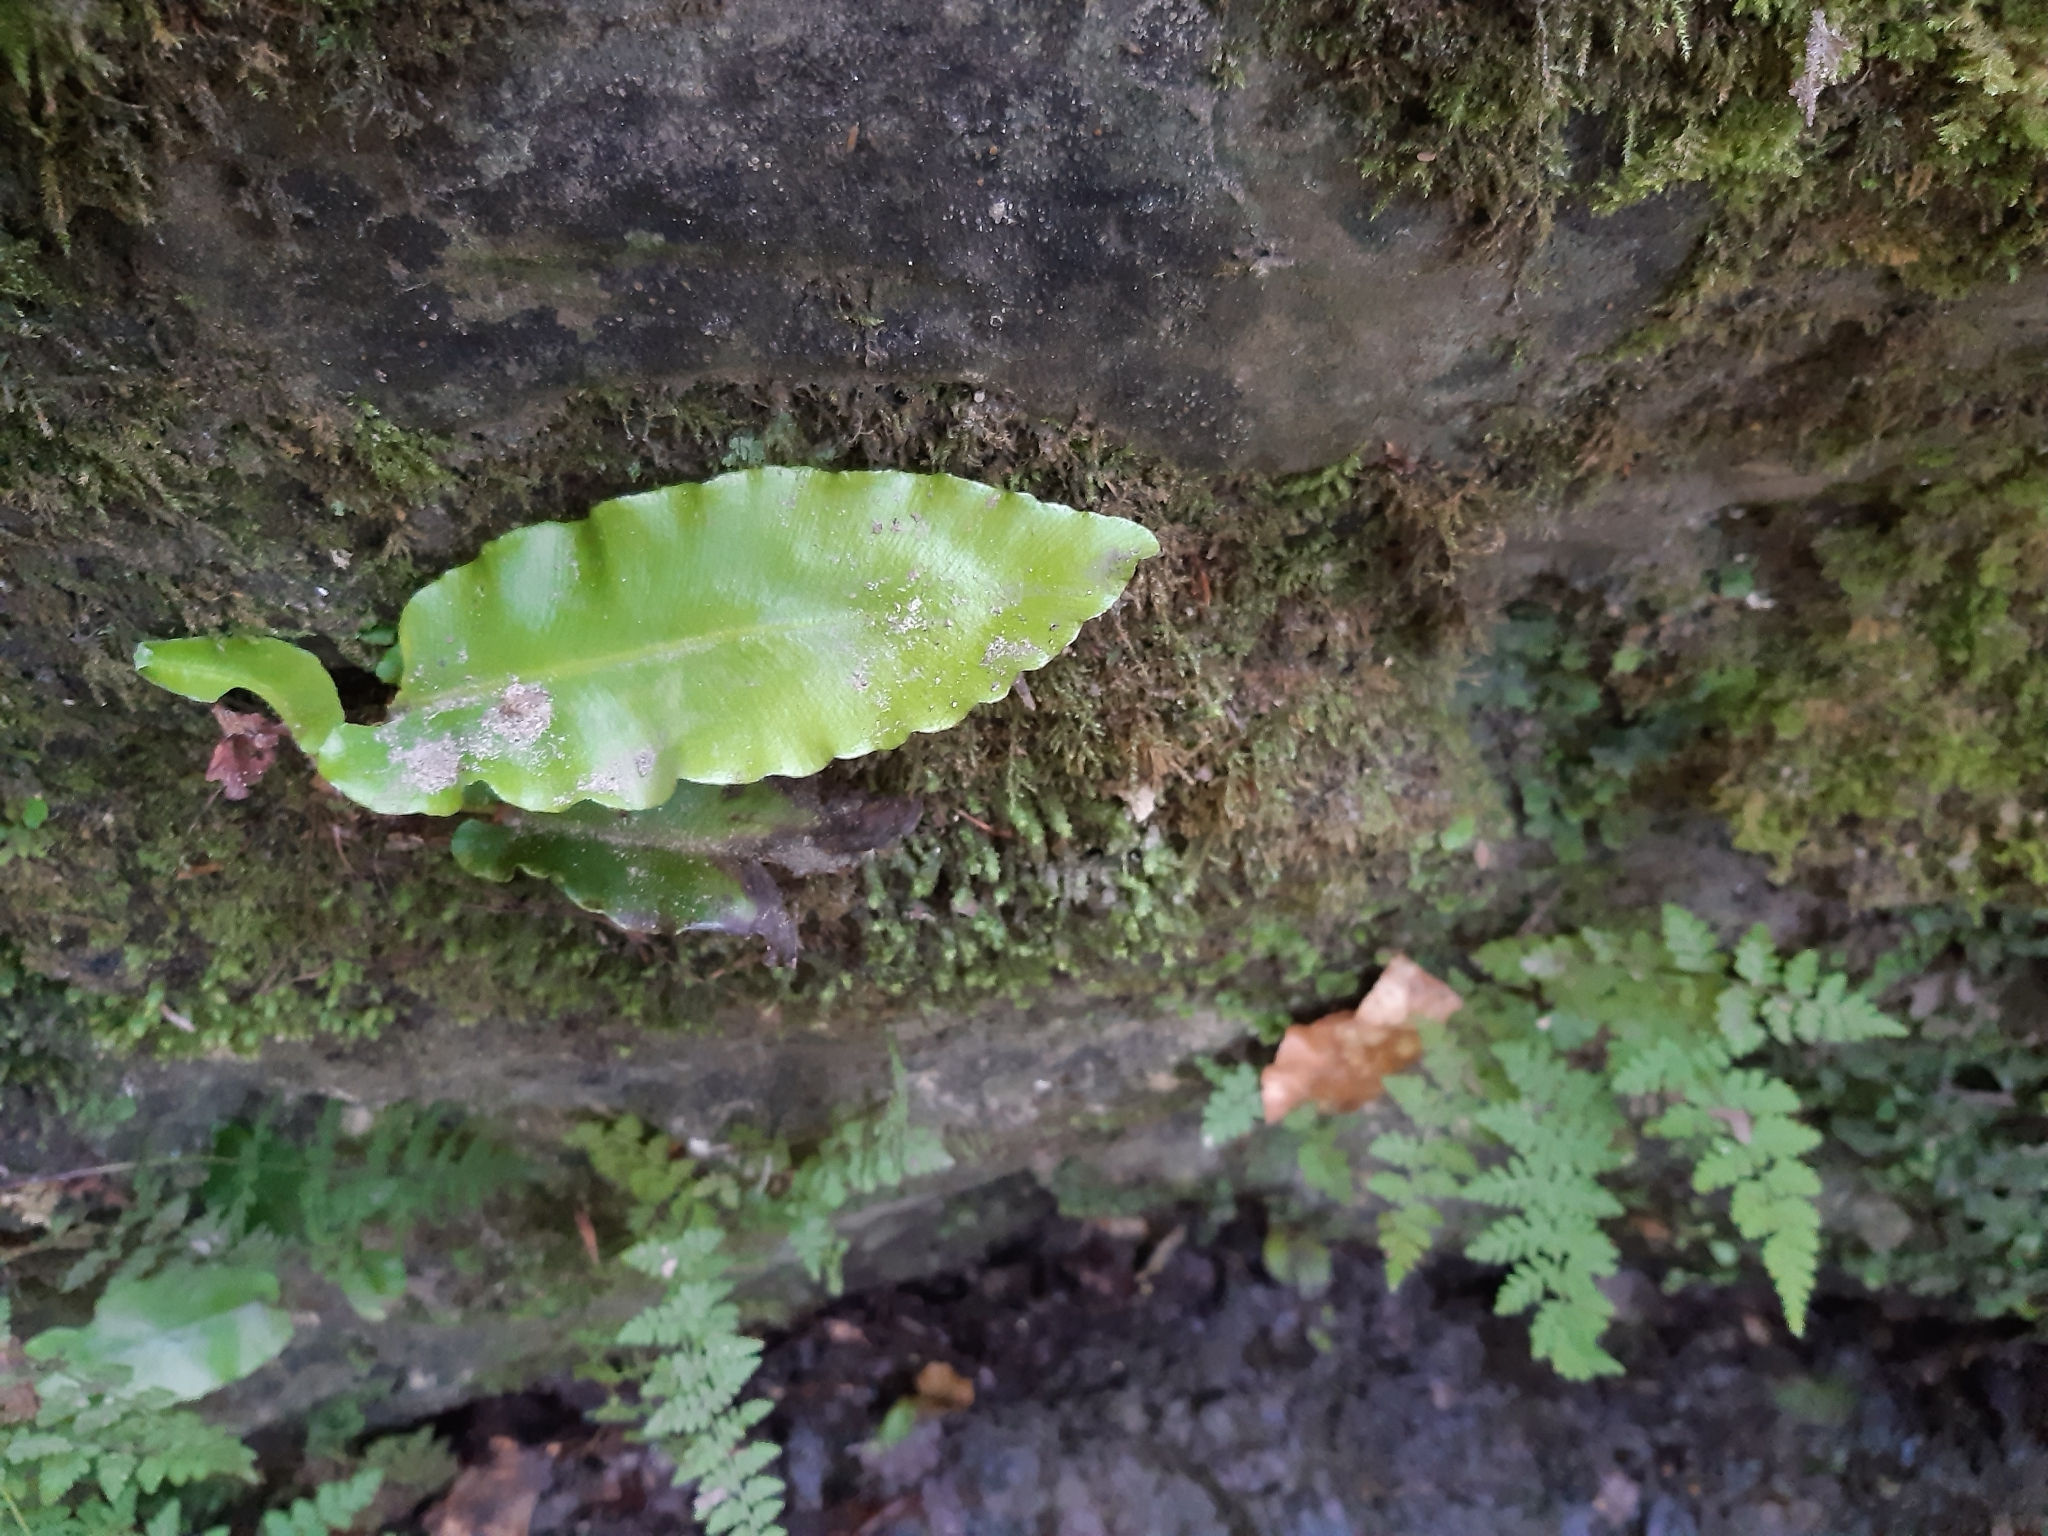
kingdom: Plantae
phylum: Tracheophyta
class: Polypodiopsida
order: Polypodiales
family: Aspleniaceae
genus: Asplenium
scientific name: Asplenium scolopendrium
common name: Hart's-tongue fern
